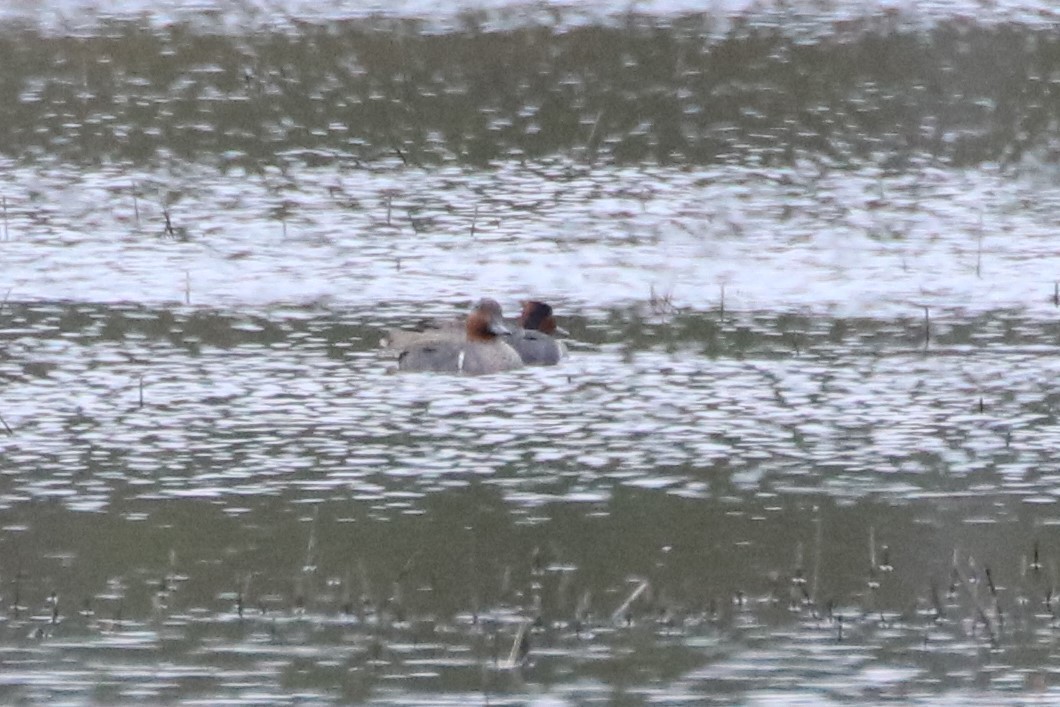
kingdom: Animalia
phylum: Chordata
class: Aves
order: Anseriformes
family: Anatidae
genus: Anas
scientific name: Anas crecca
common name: Eurasian teal
